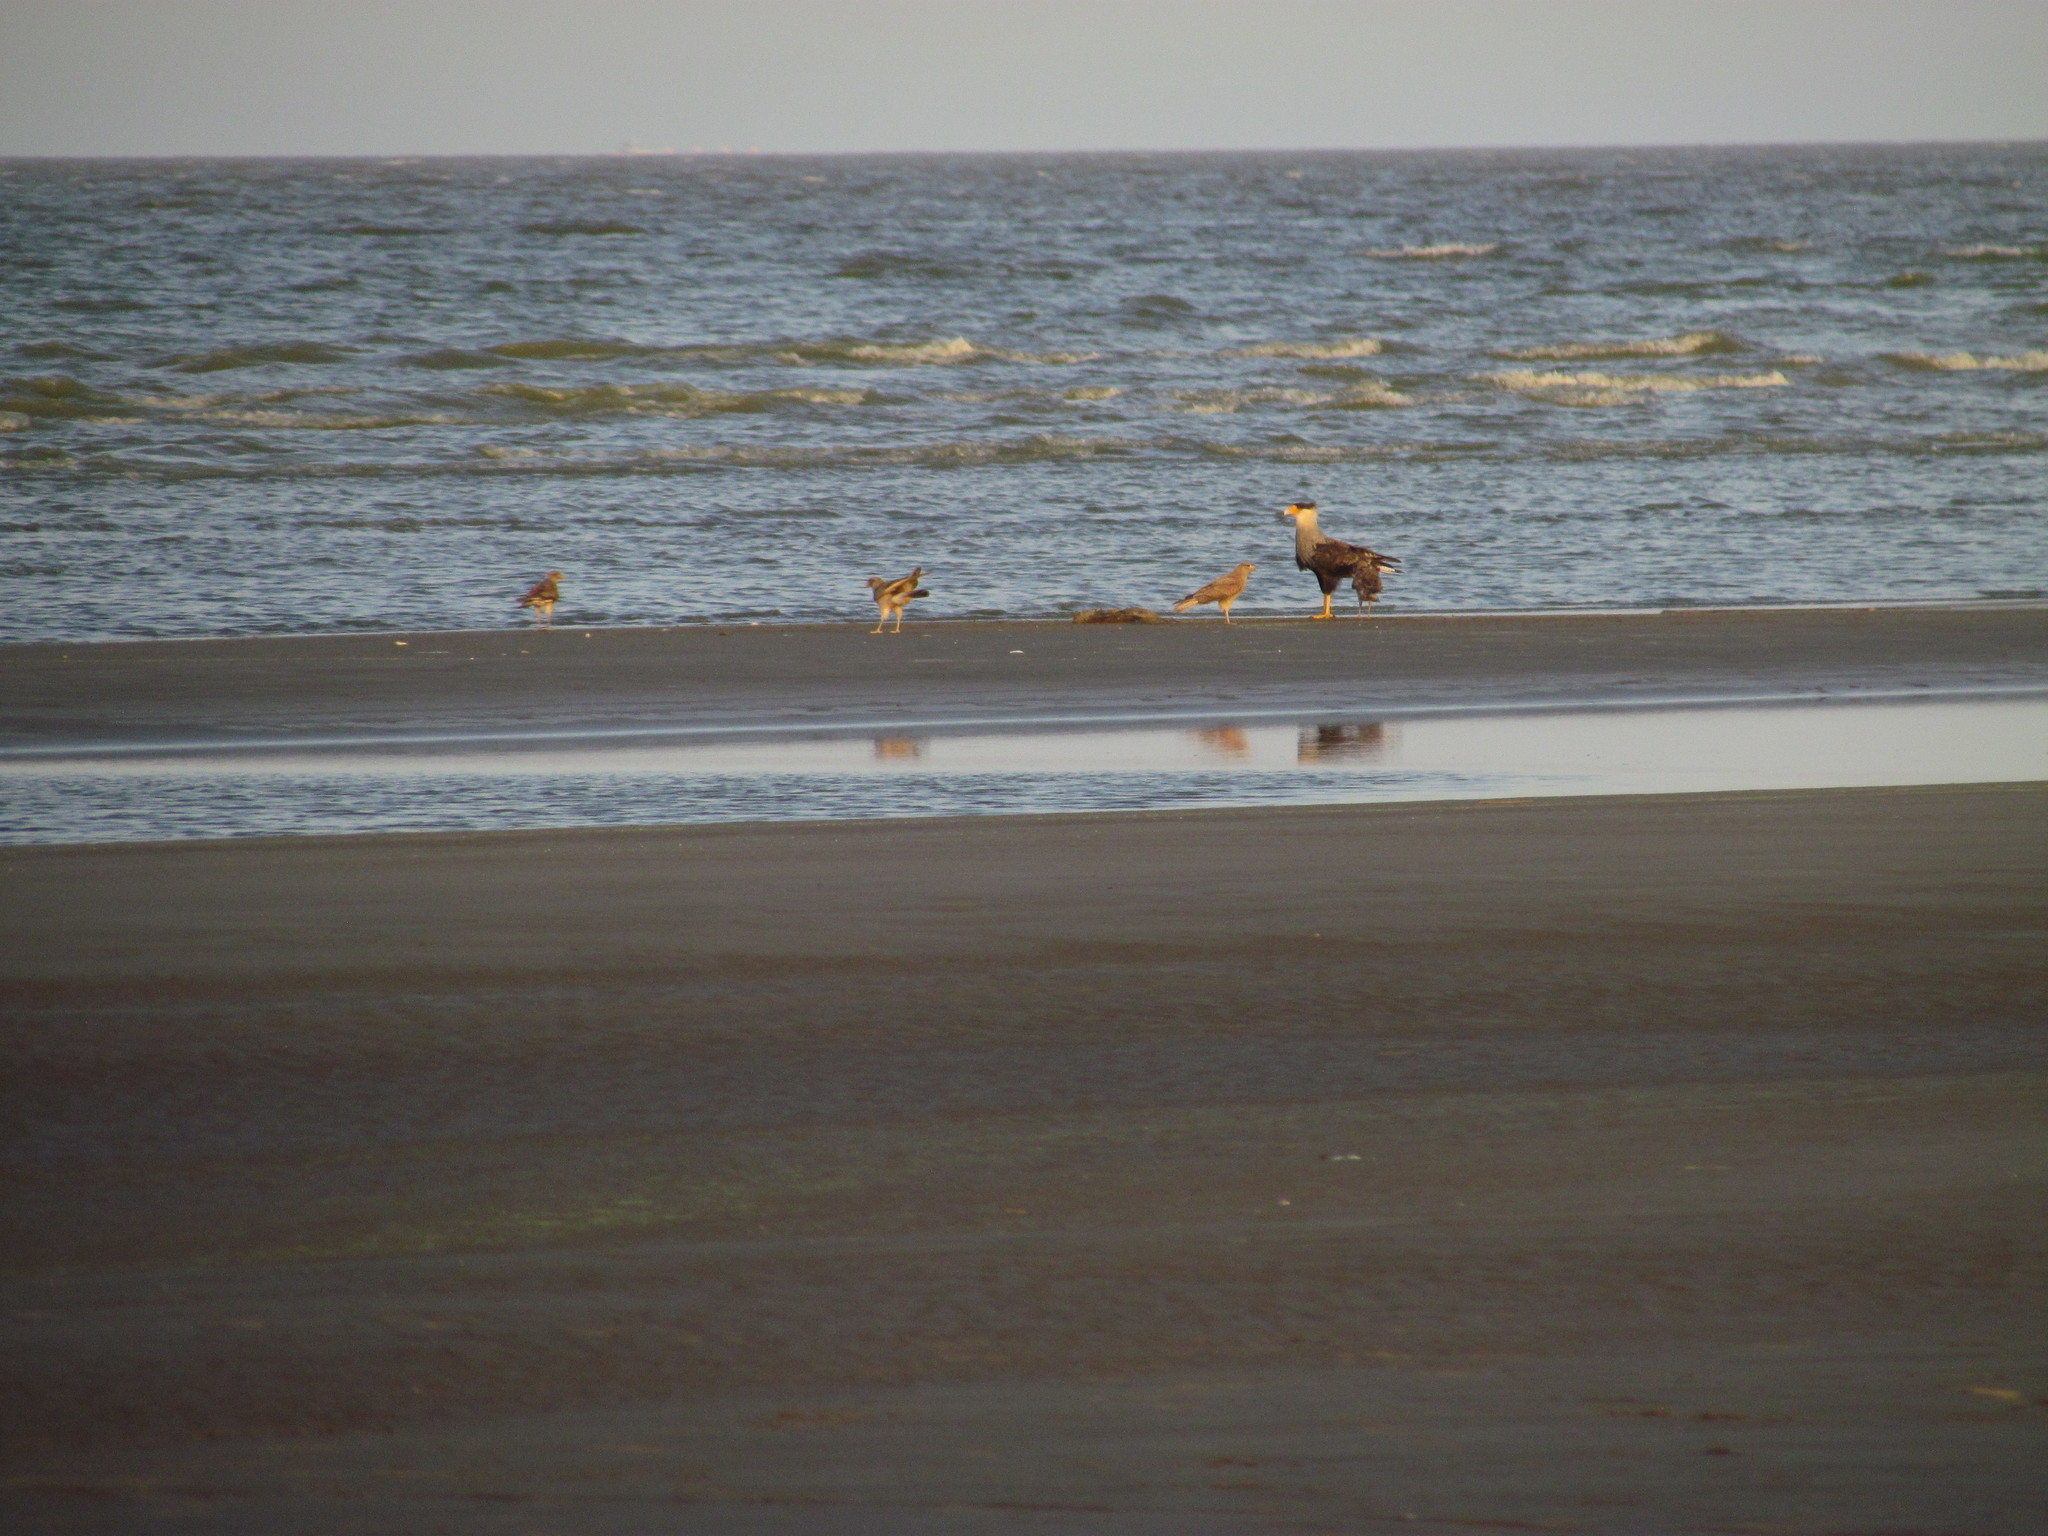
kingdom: Animalia
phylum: Chordata
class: Aves
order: Falconiformes
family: Falconidae
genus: Caracara
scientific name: Caracara plancus
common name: Southern caracara
